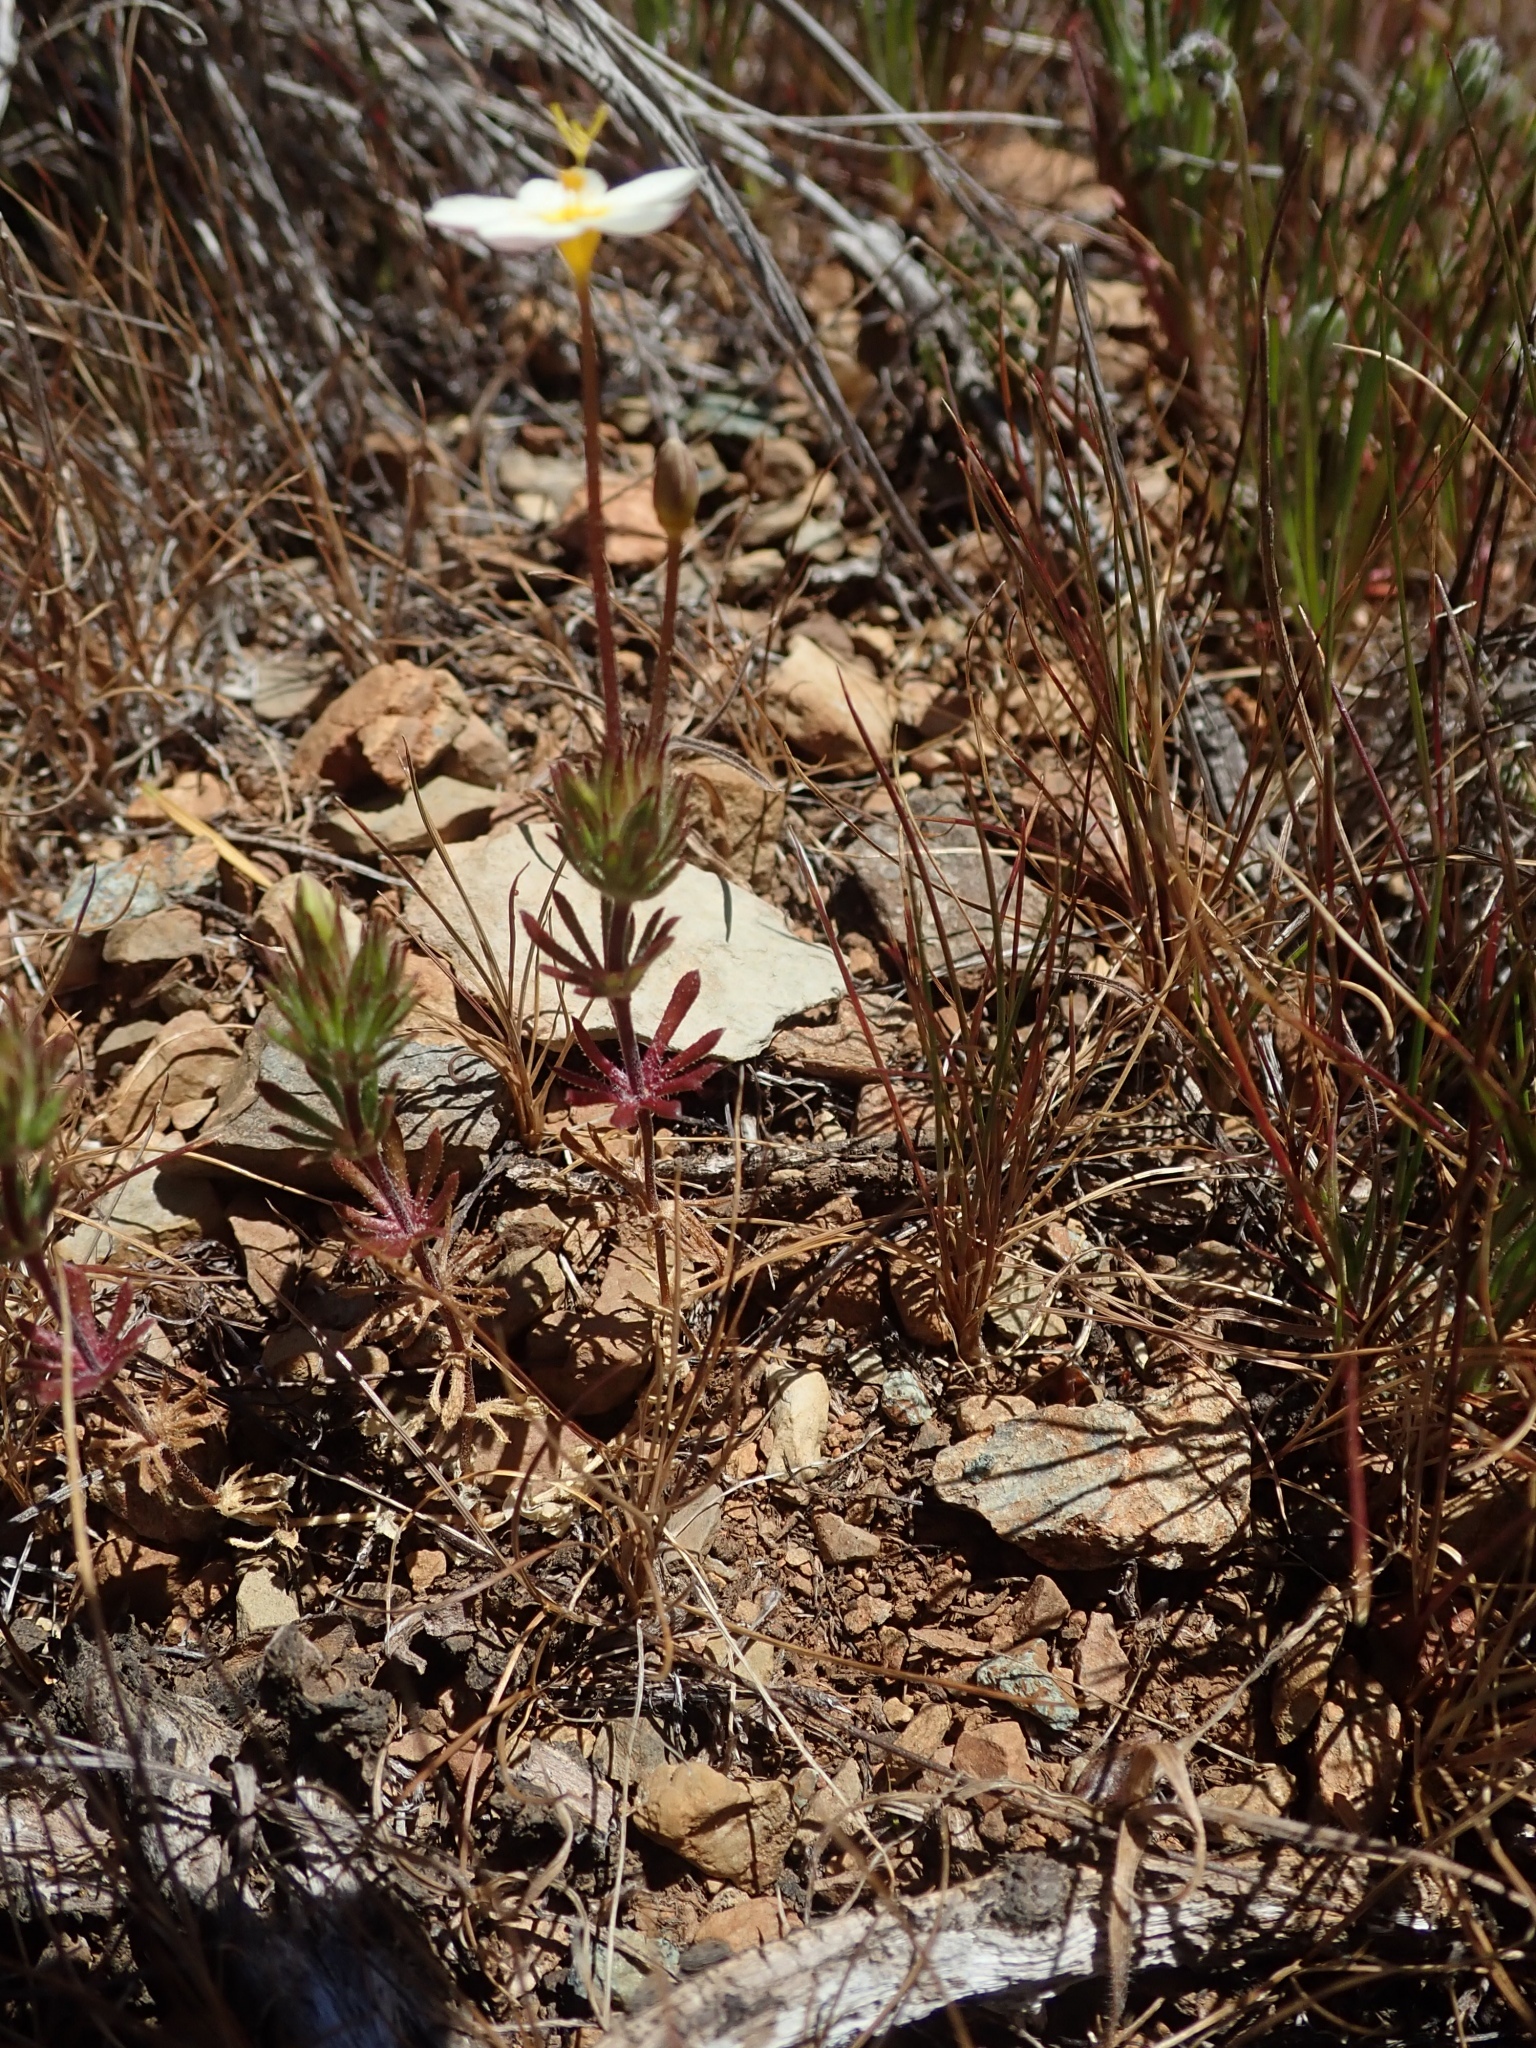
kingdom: Plantae
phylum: Tracheophyta
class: Magnoliopsida
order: Ericales
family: Polemoniaceae
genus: Leptosiphon
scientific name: Leptosiphon parviflorus
